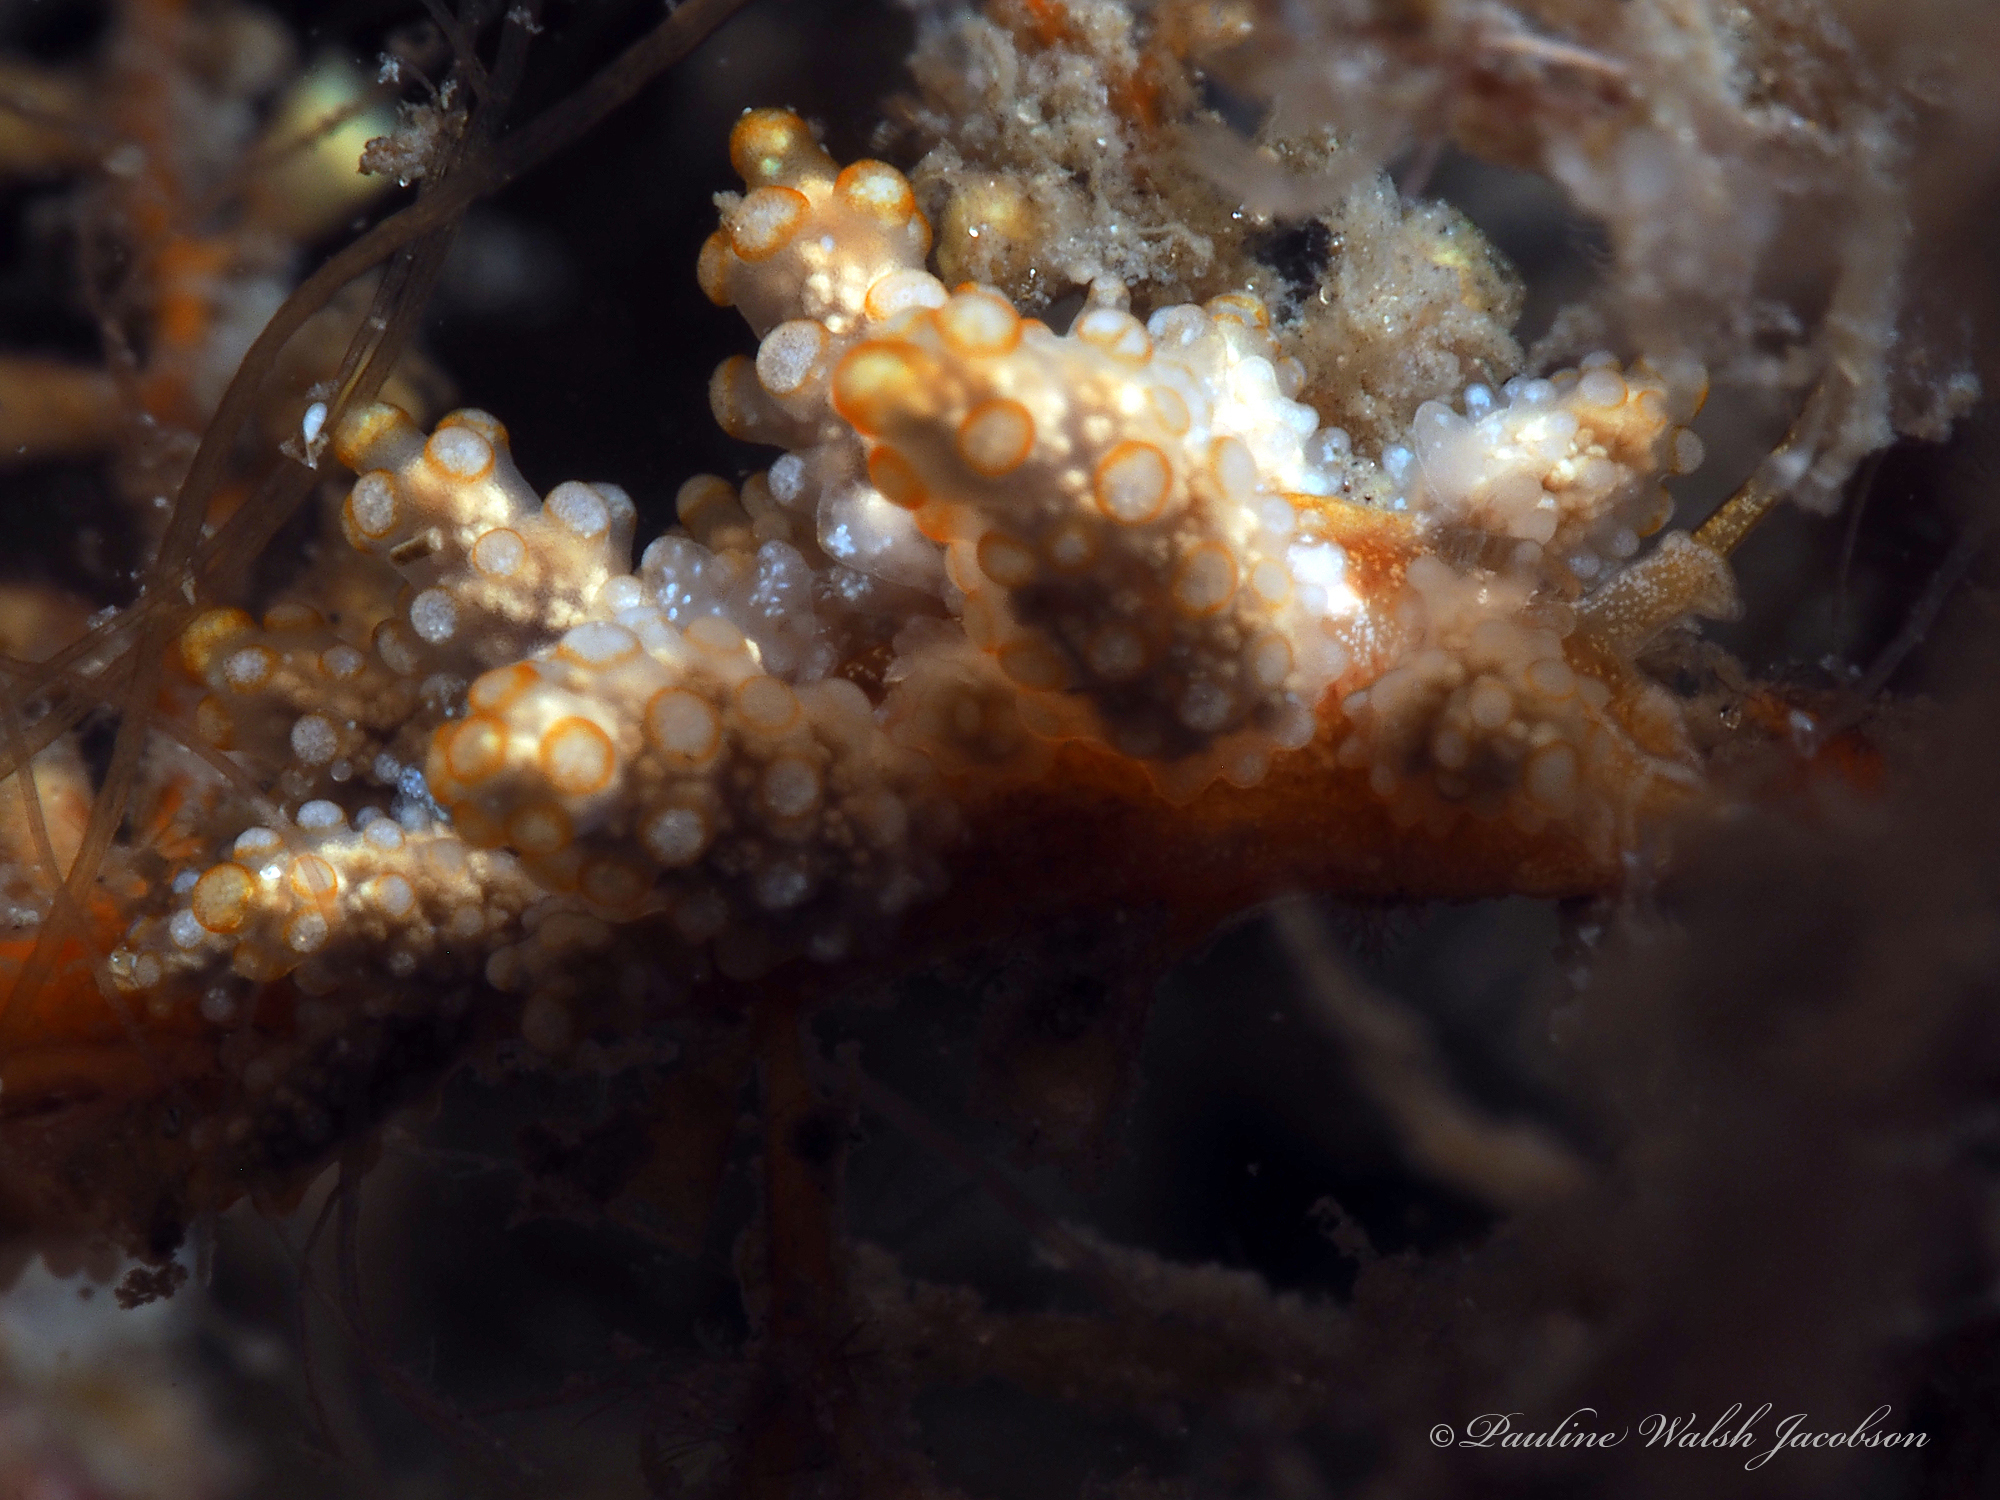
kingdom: Animalia
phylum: Mollusca
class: Gastropoda
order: Nudibranchia
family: Dotidae
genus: Doto
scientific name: Doto torrelavega
